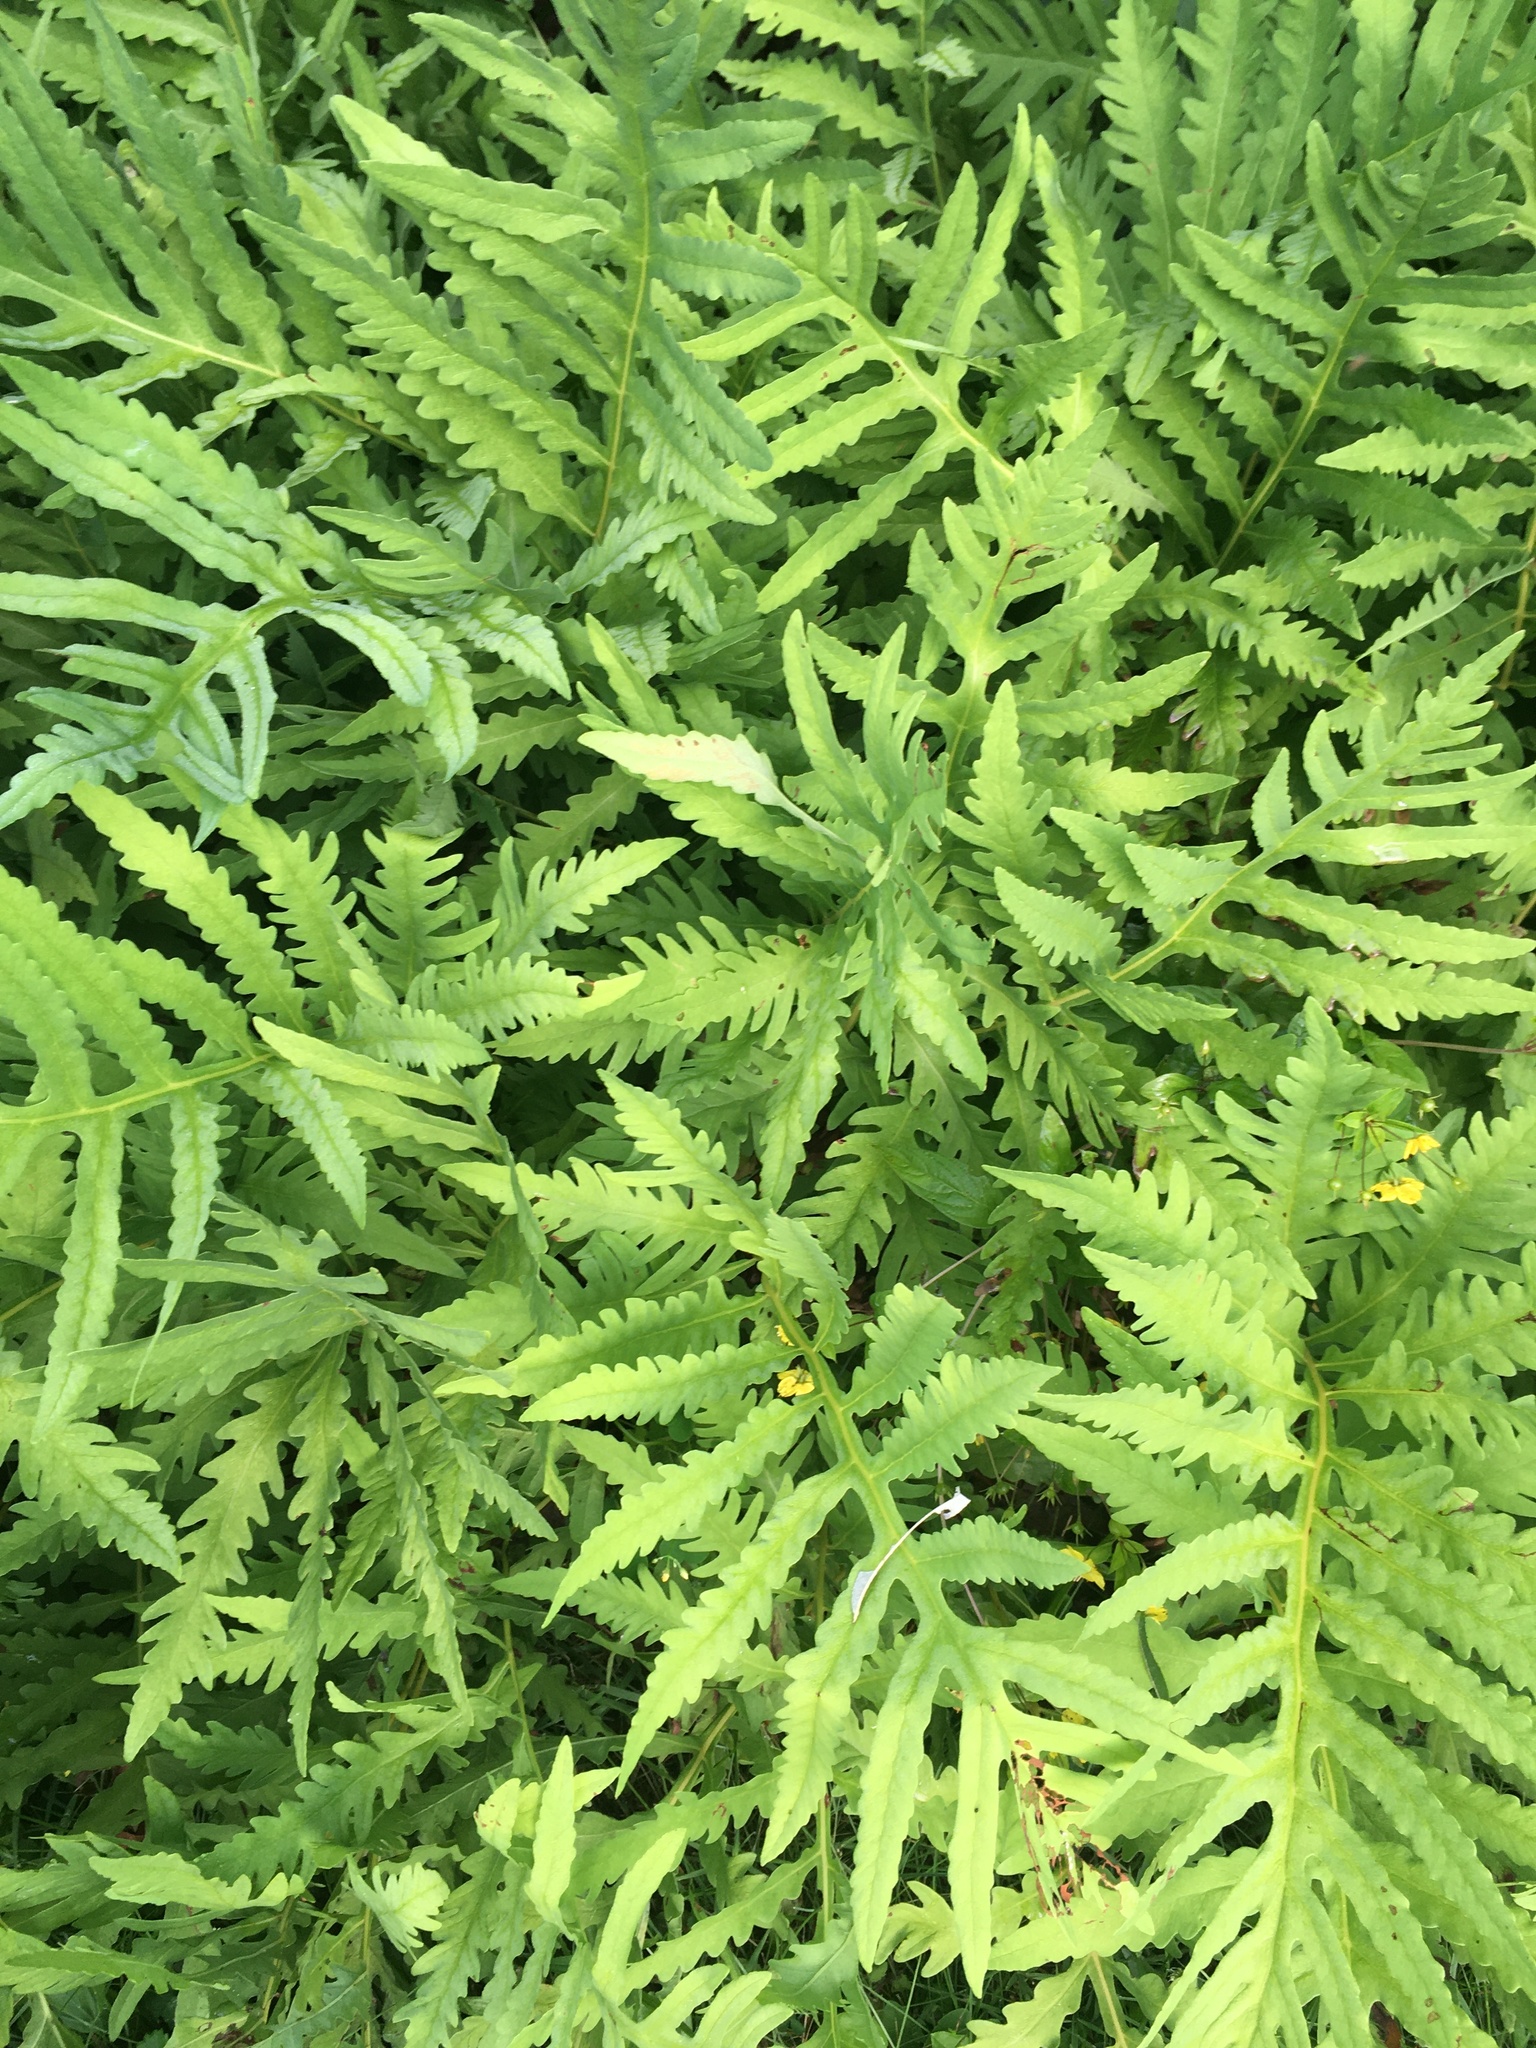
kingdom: Plantae
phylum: Tracheophyta
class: Polypodiopsida
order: Polypodiales
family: Onocleaceae
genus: Onoclea
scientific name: Onoclea sensibilis
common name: Sensitive fern
